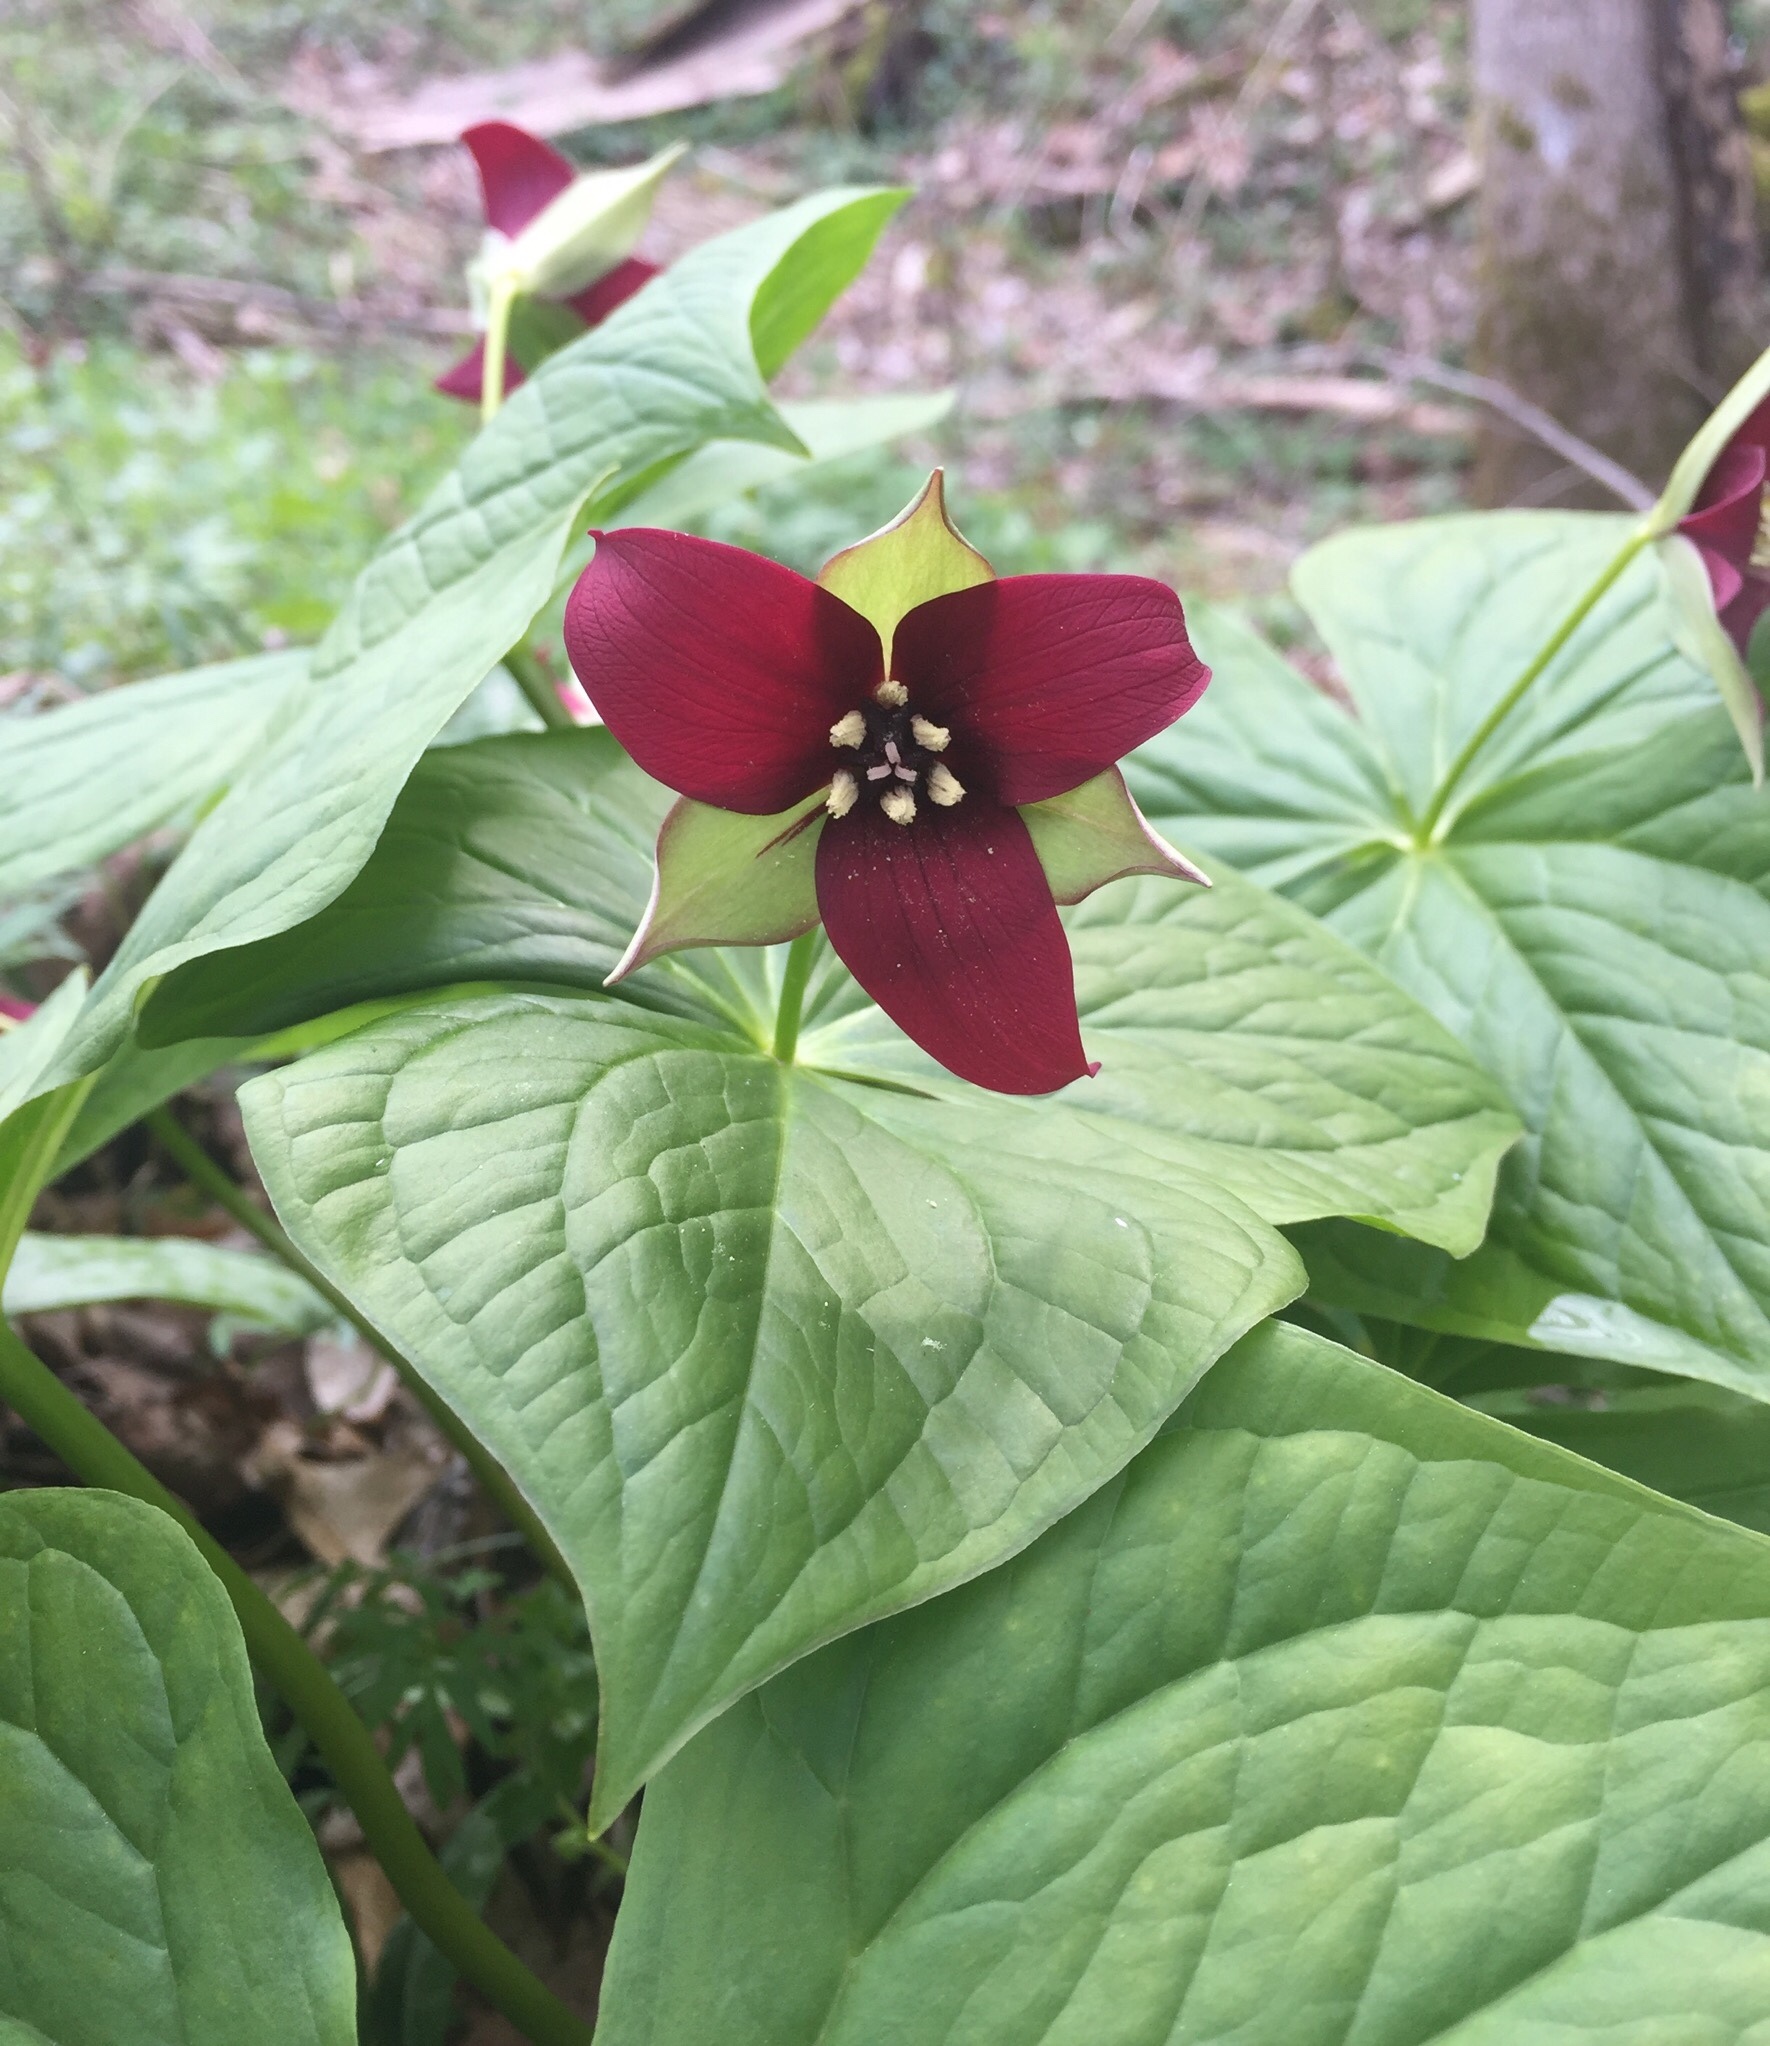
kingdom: Plantae
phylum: Tracheophyta
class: Liliopsida
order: Liliales
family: Melanthiaceae
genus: Trillium
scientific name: Trillium erectum
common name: Purple trillium
